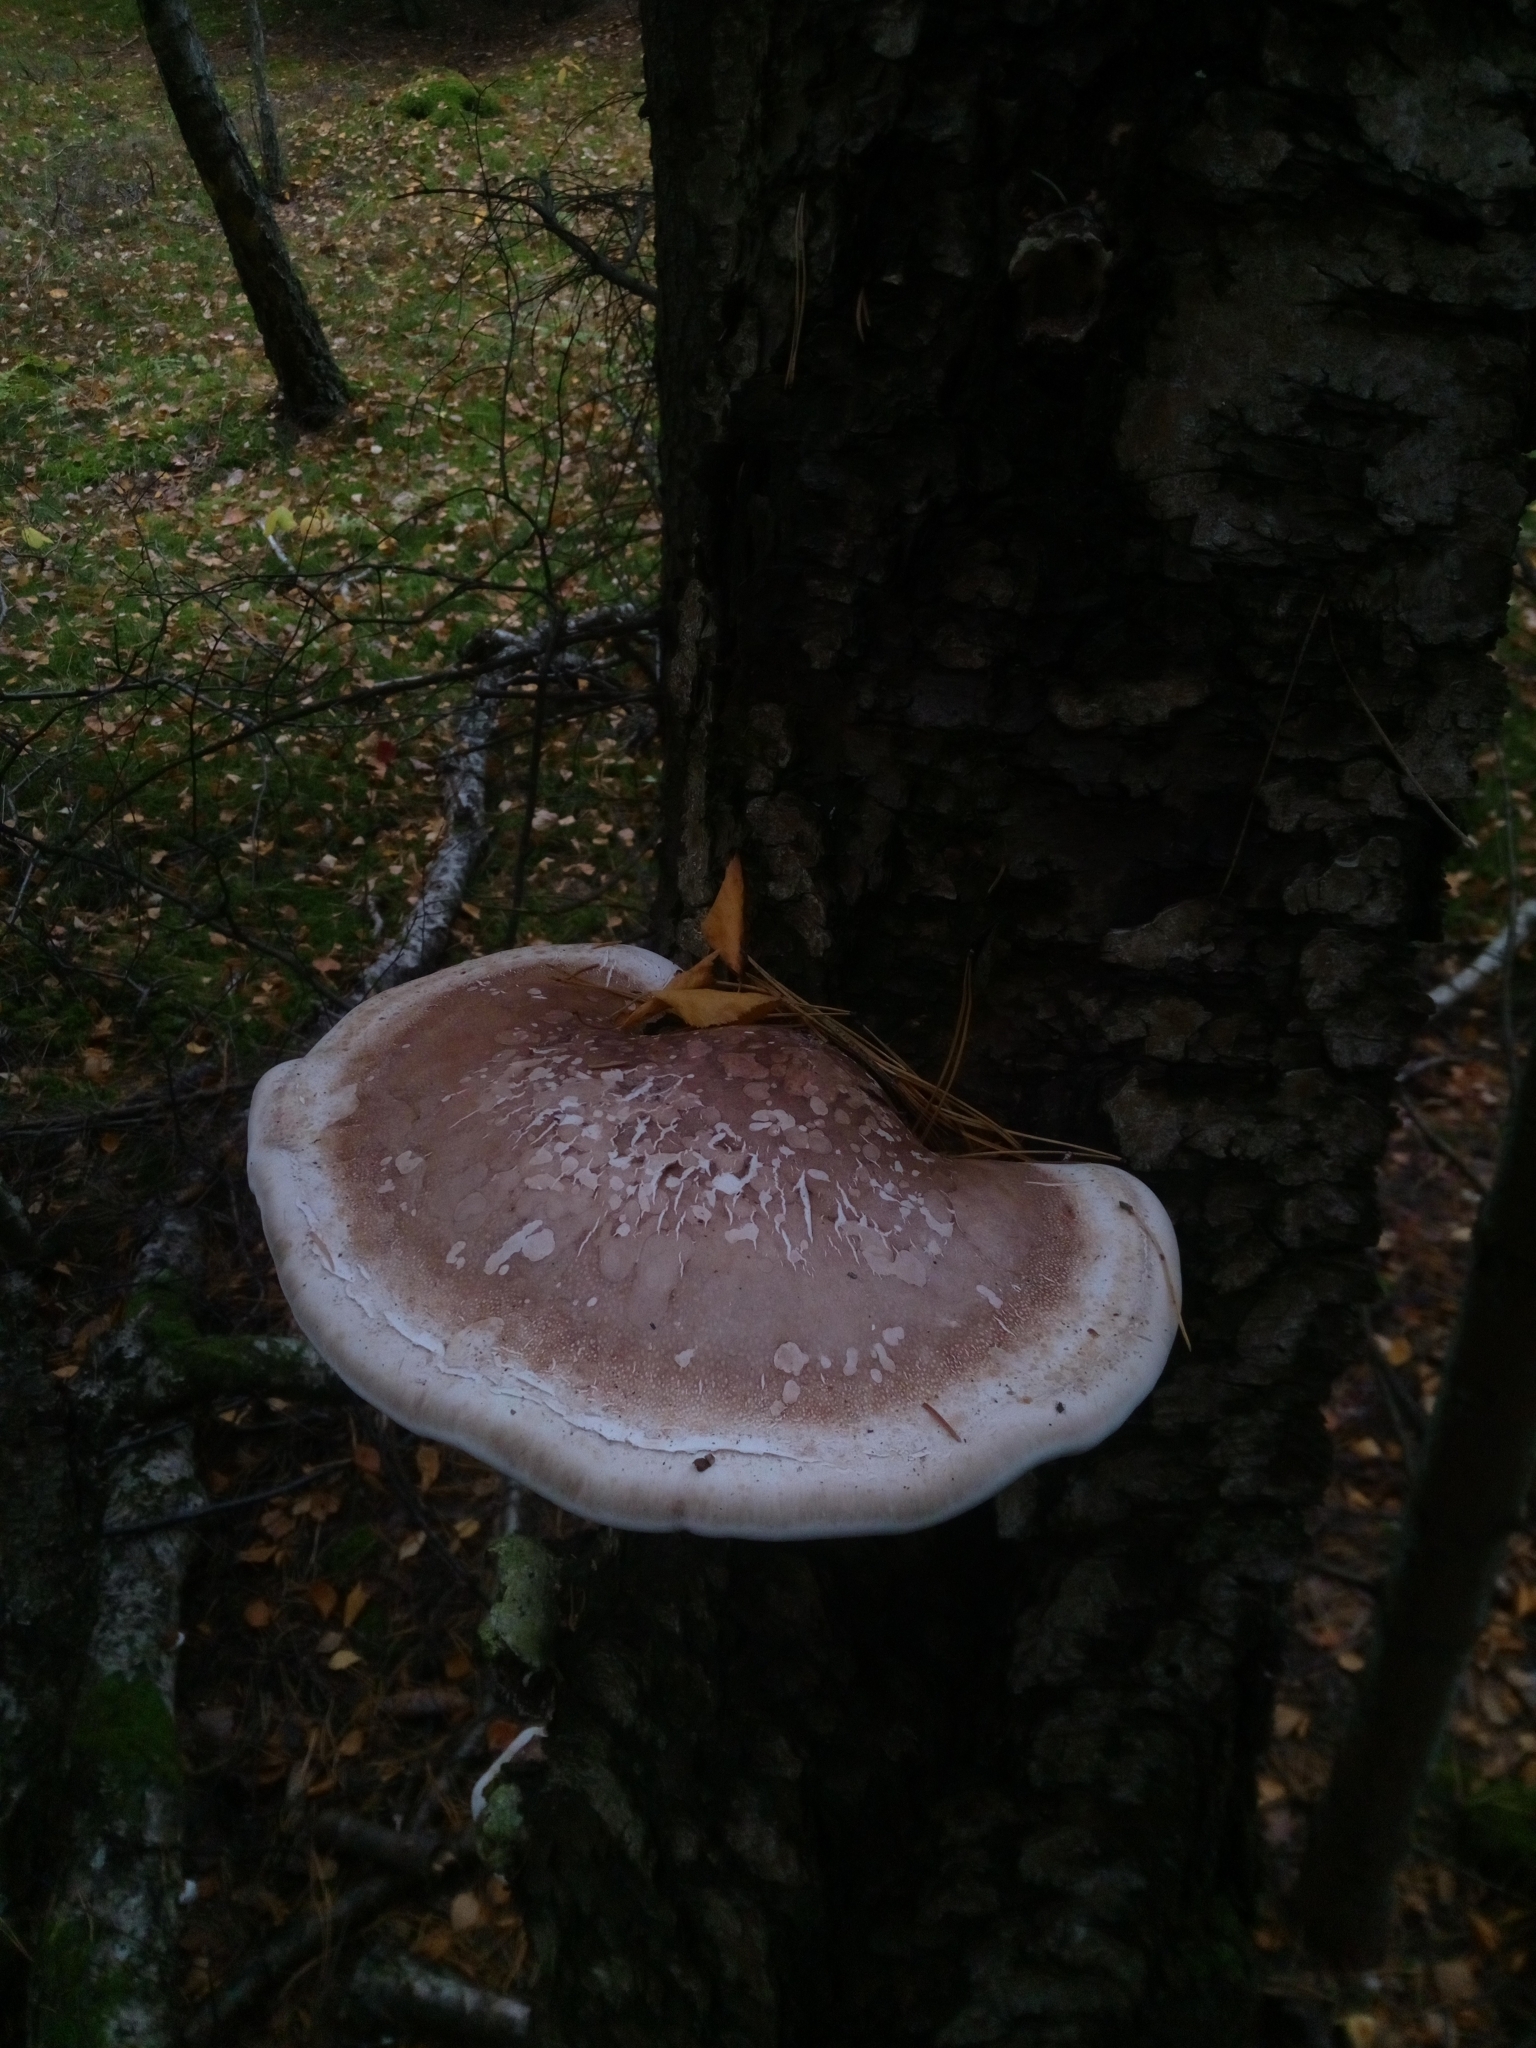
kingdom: Fungi
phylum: Basidiomycota
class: Agaricomycetes
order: Polyporales
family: Fomitopsidaceae
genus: Fomitopsis
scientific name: Fomitopsis betulina
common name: Birch polypore
